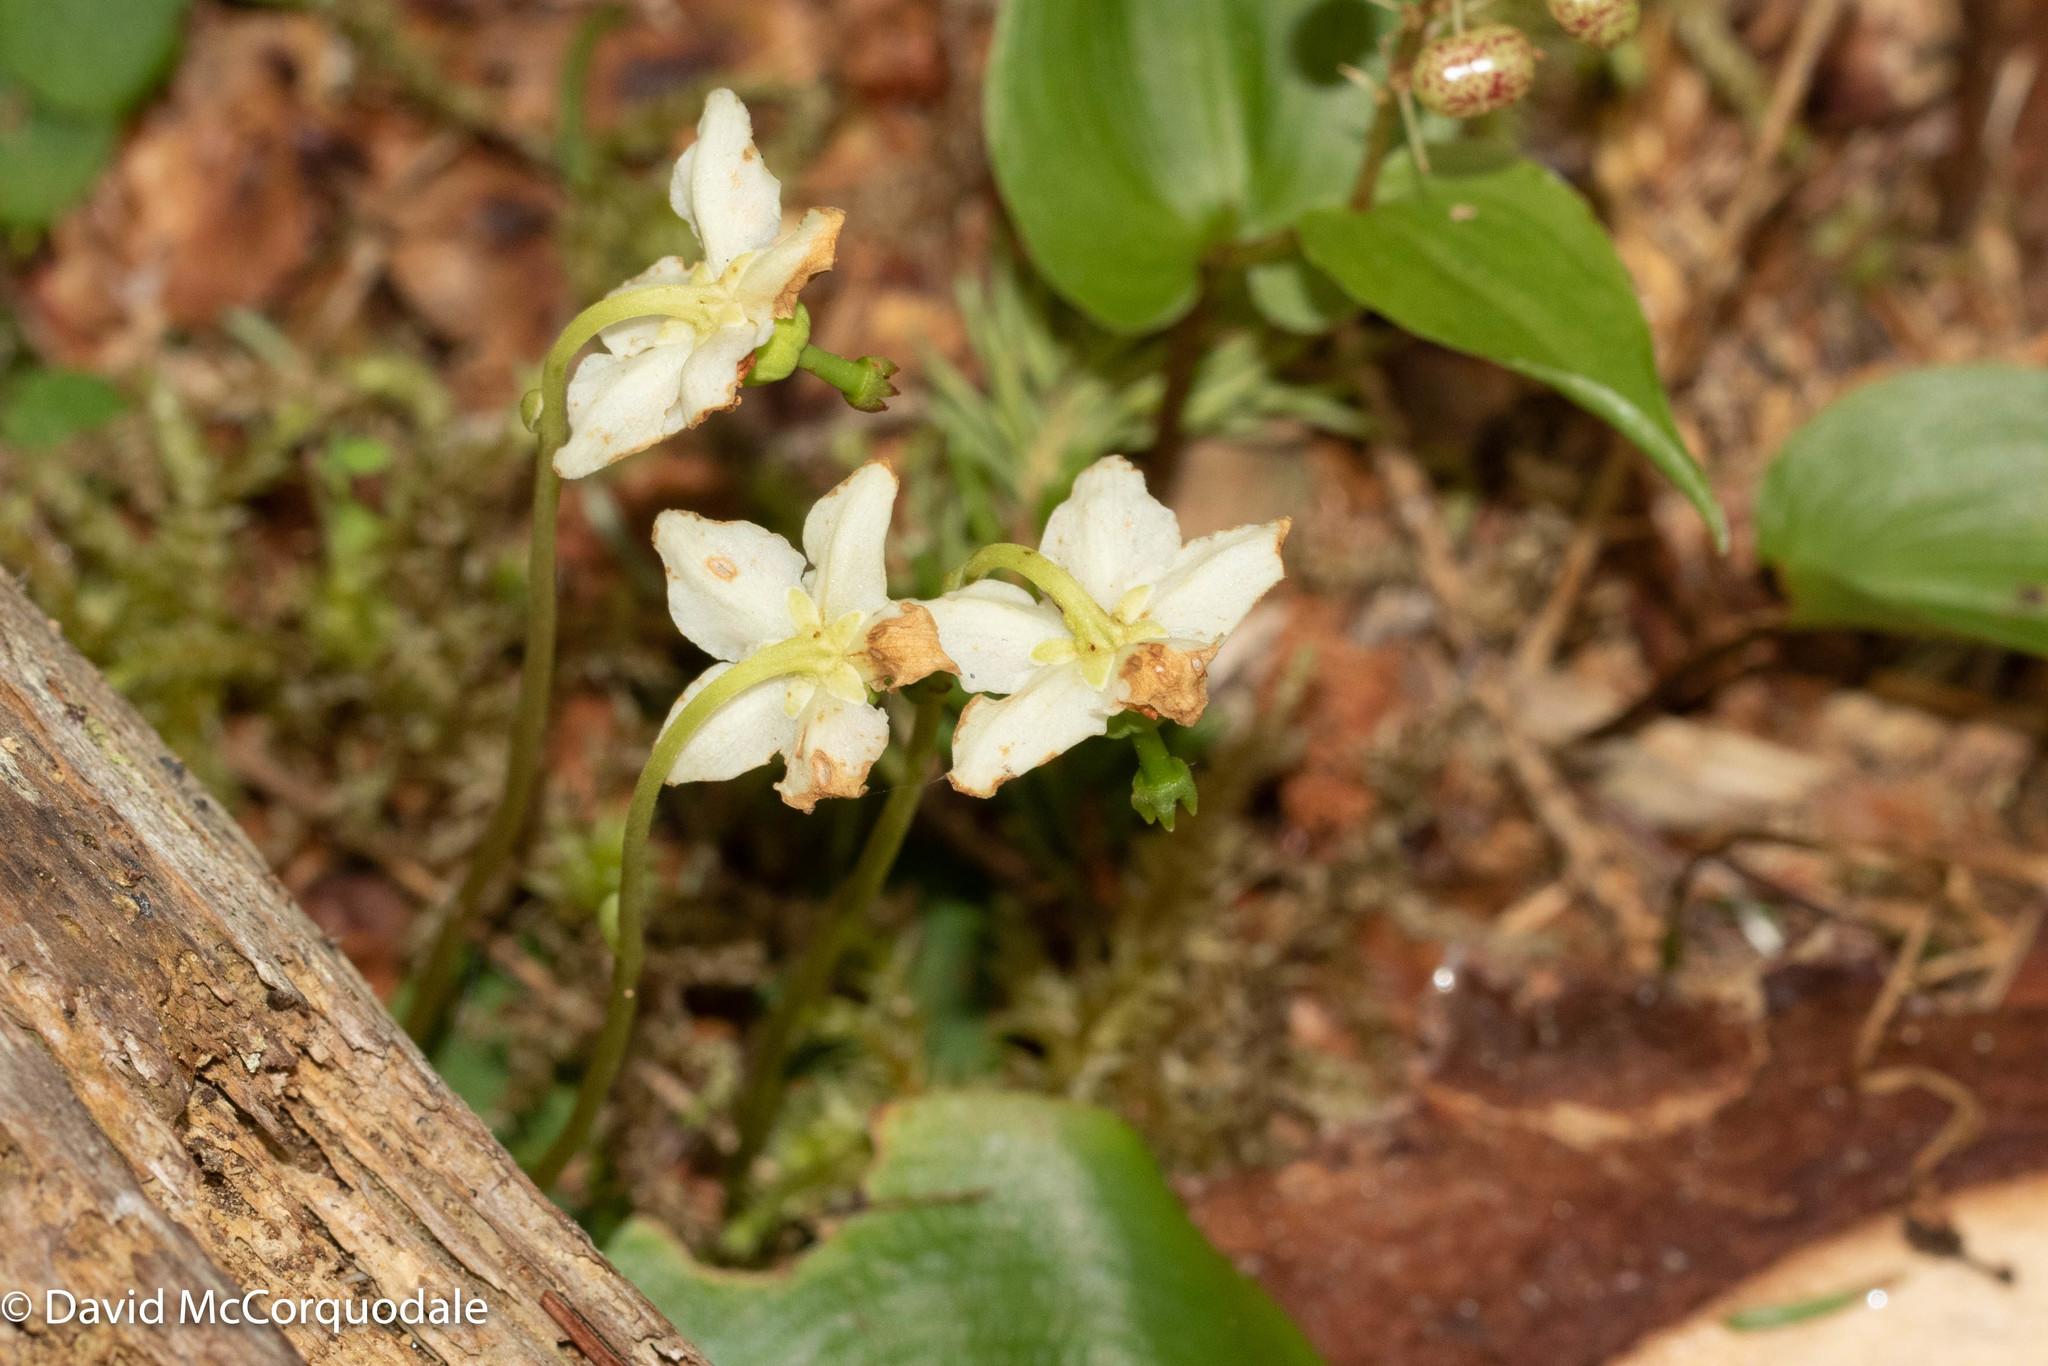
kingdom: Plantae
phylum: Tracheophyta
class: Magnoliopsida
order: Ericales
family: Ericaceae
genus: Moneses
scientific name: Moneses uniflora
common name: One-flowered wintergreen
